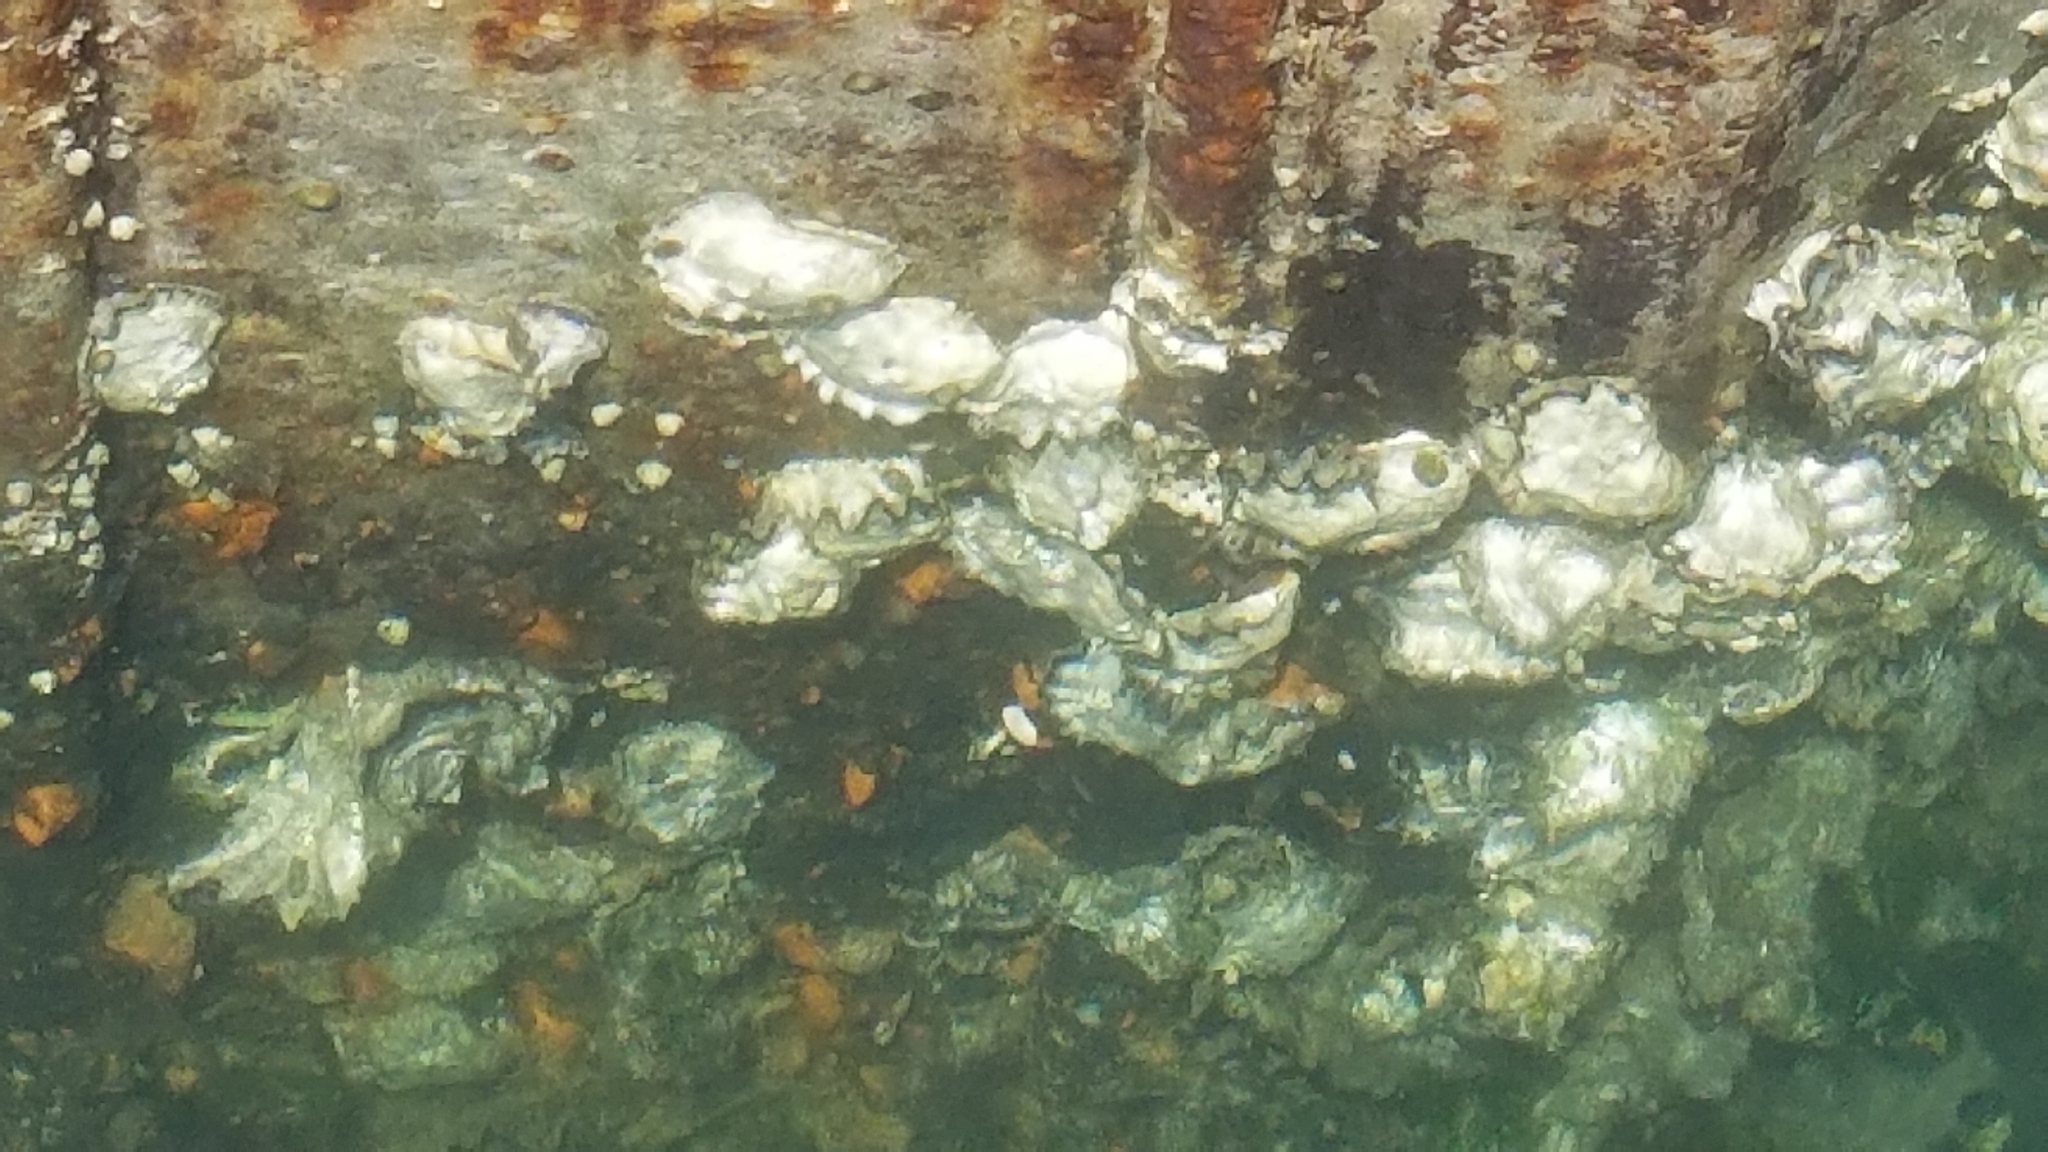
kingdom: Animalia
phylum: Mollusca
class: Bivalvia
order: Ostreida
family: Ostreidae
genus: Magallana
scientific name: Magallana gigas
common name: Pacific oyster
